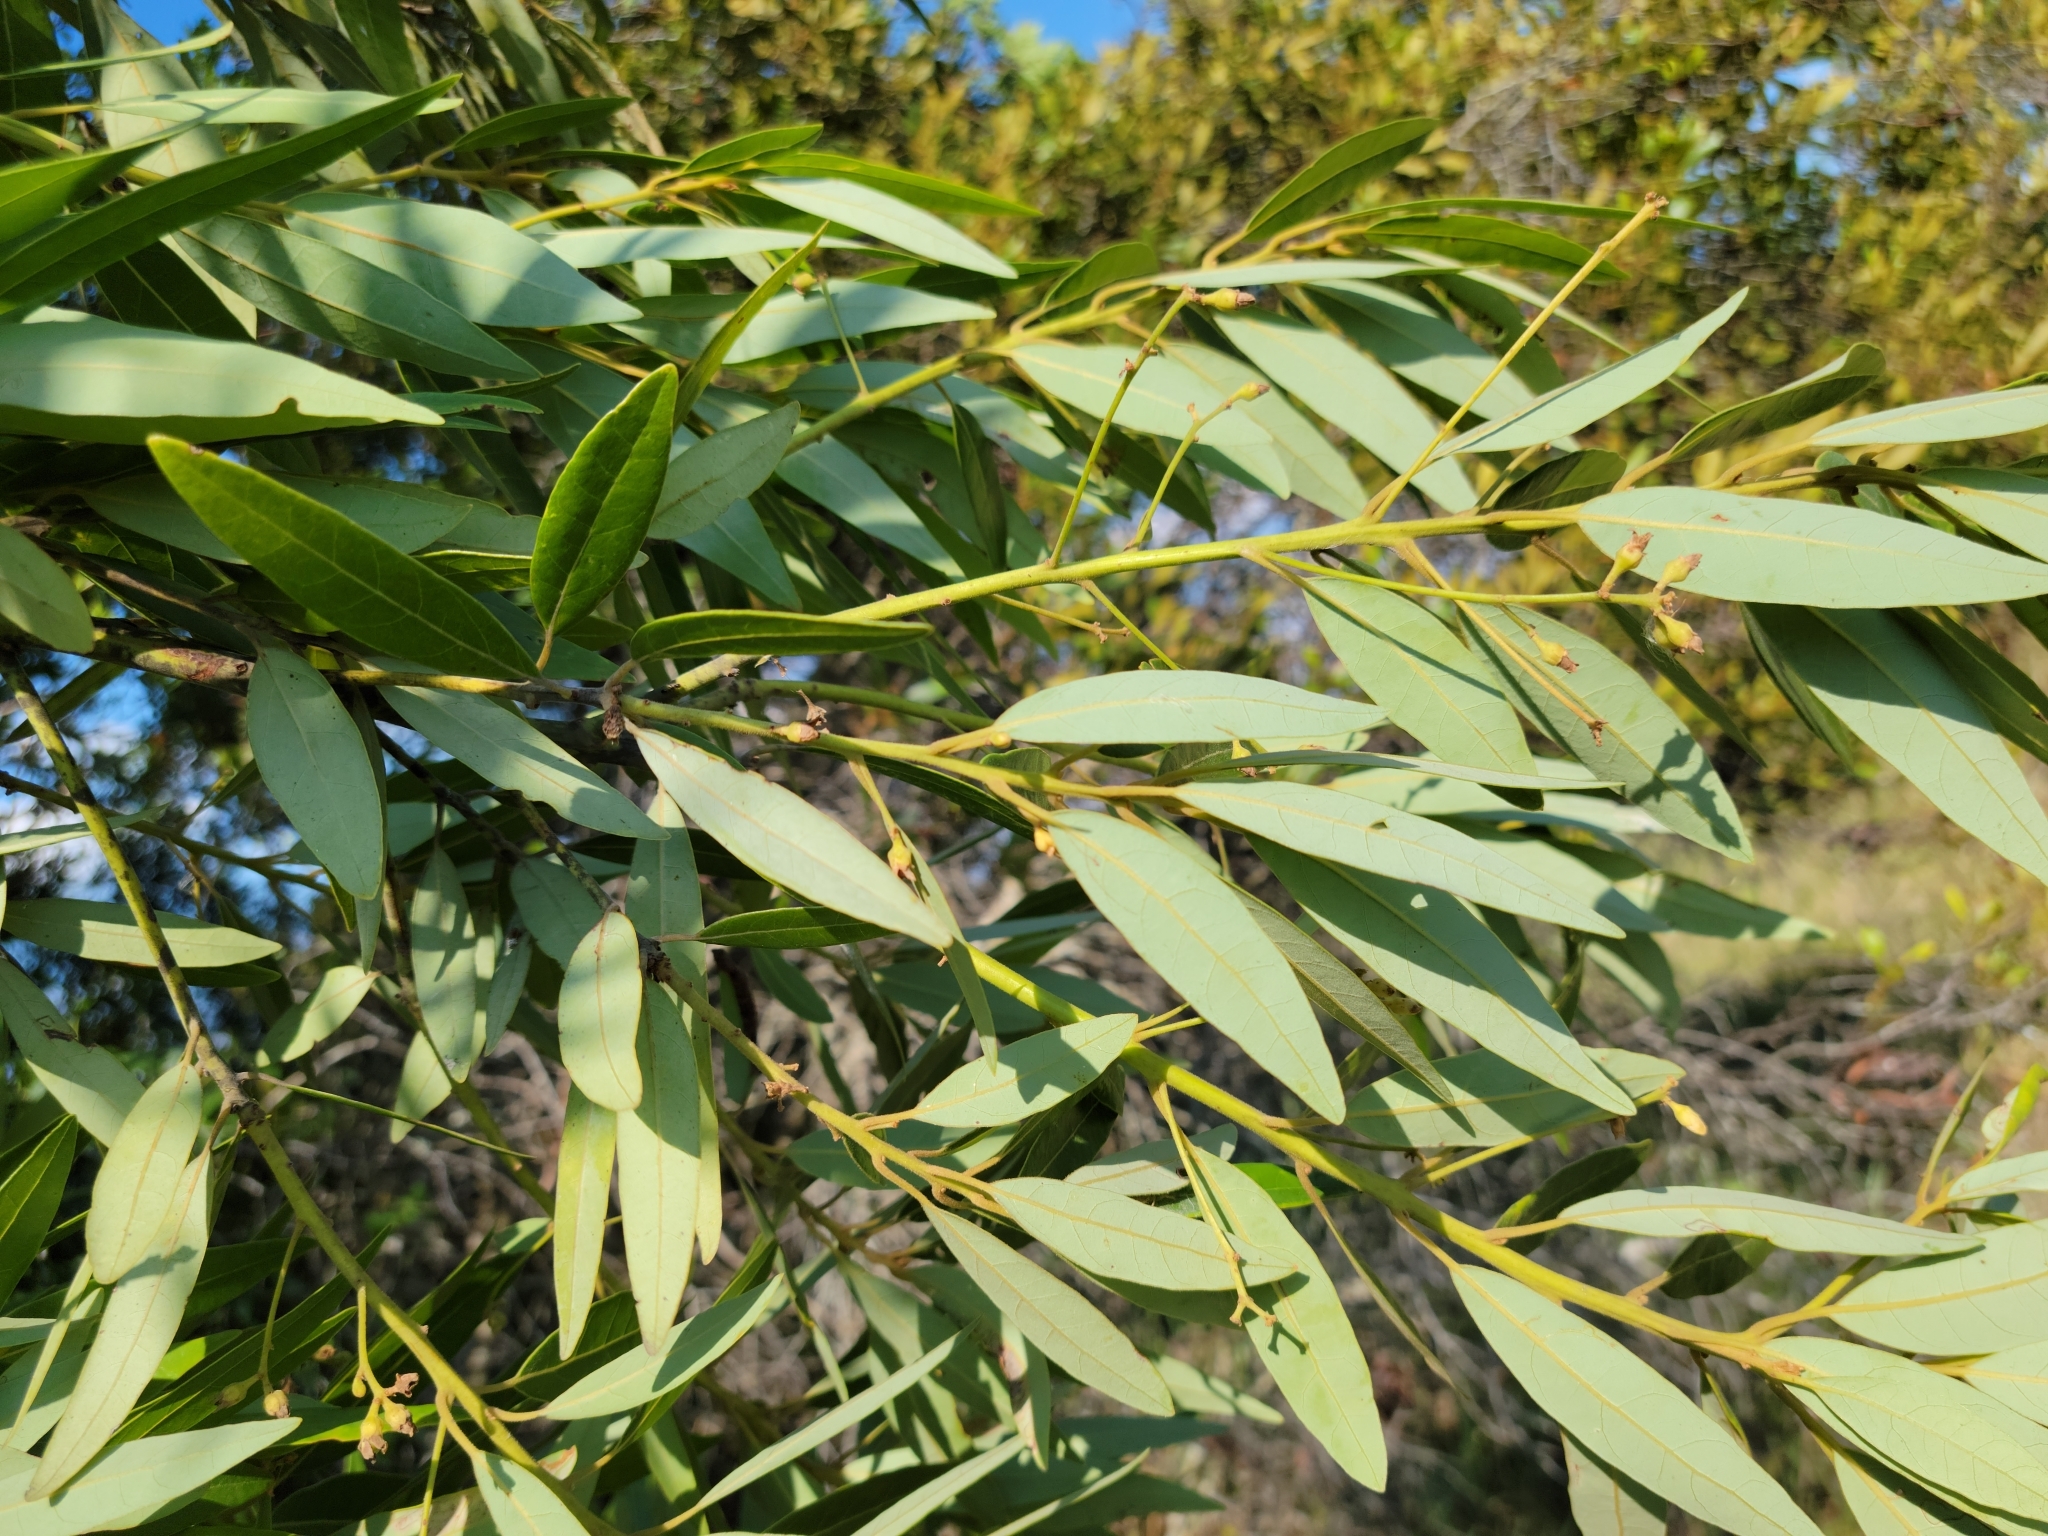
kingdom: Plantae
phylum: Tracheophyta
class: Magnoliopsida
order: Laurales
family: Lauraceae
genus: Persea
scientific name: Persea palustris
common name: Swampbay
